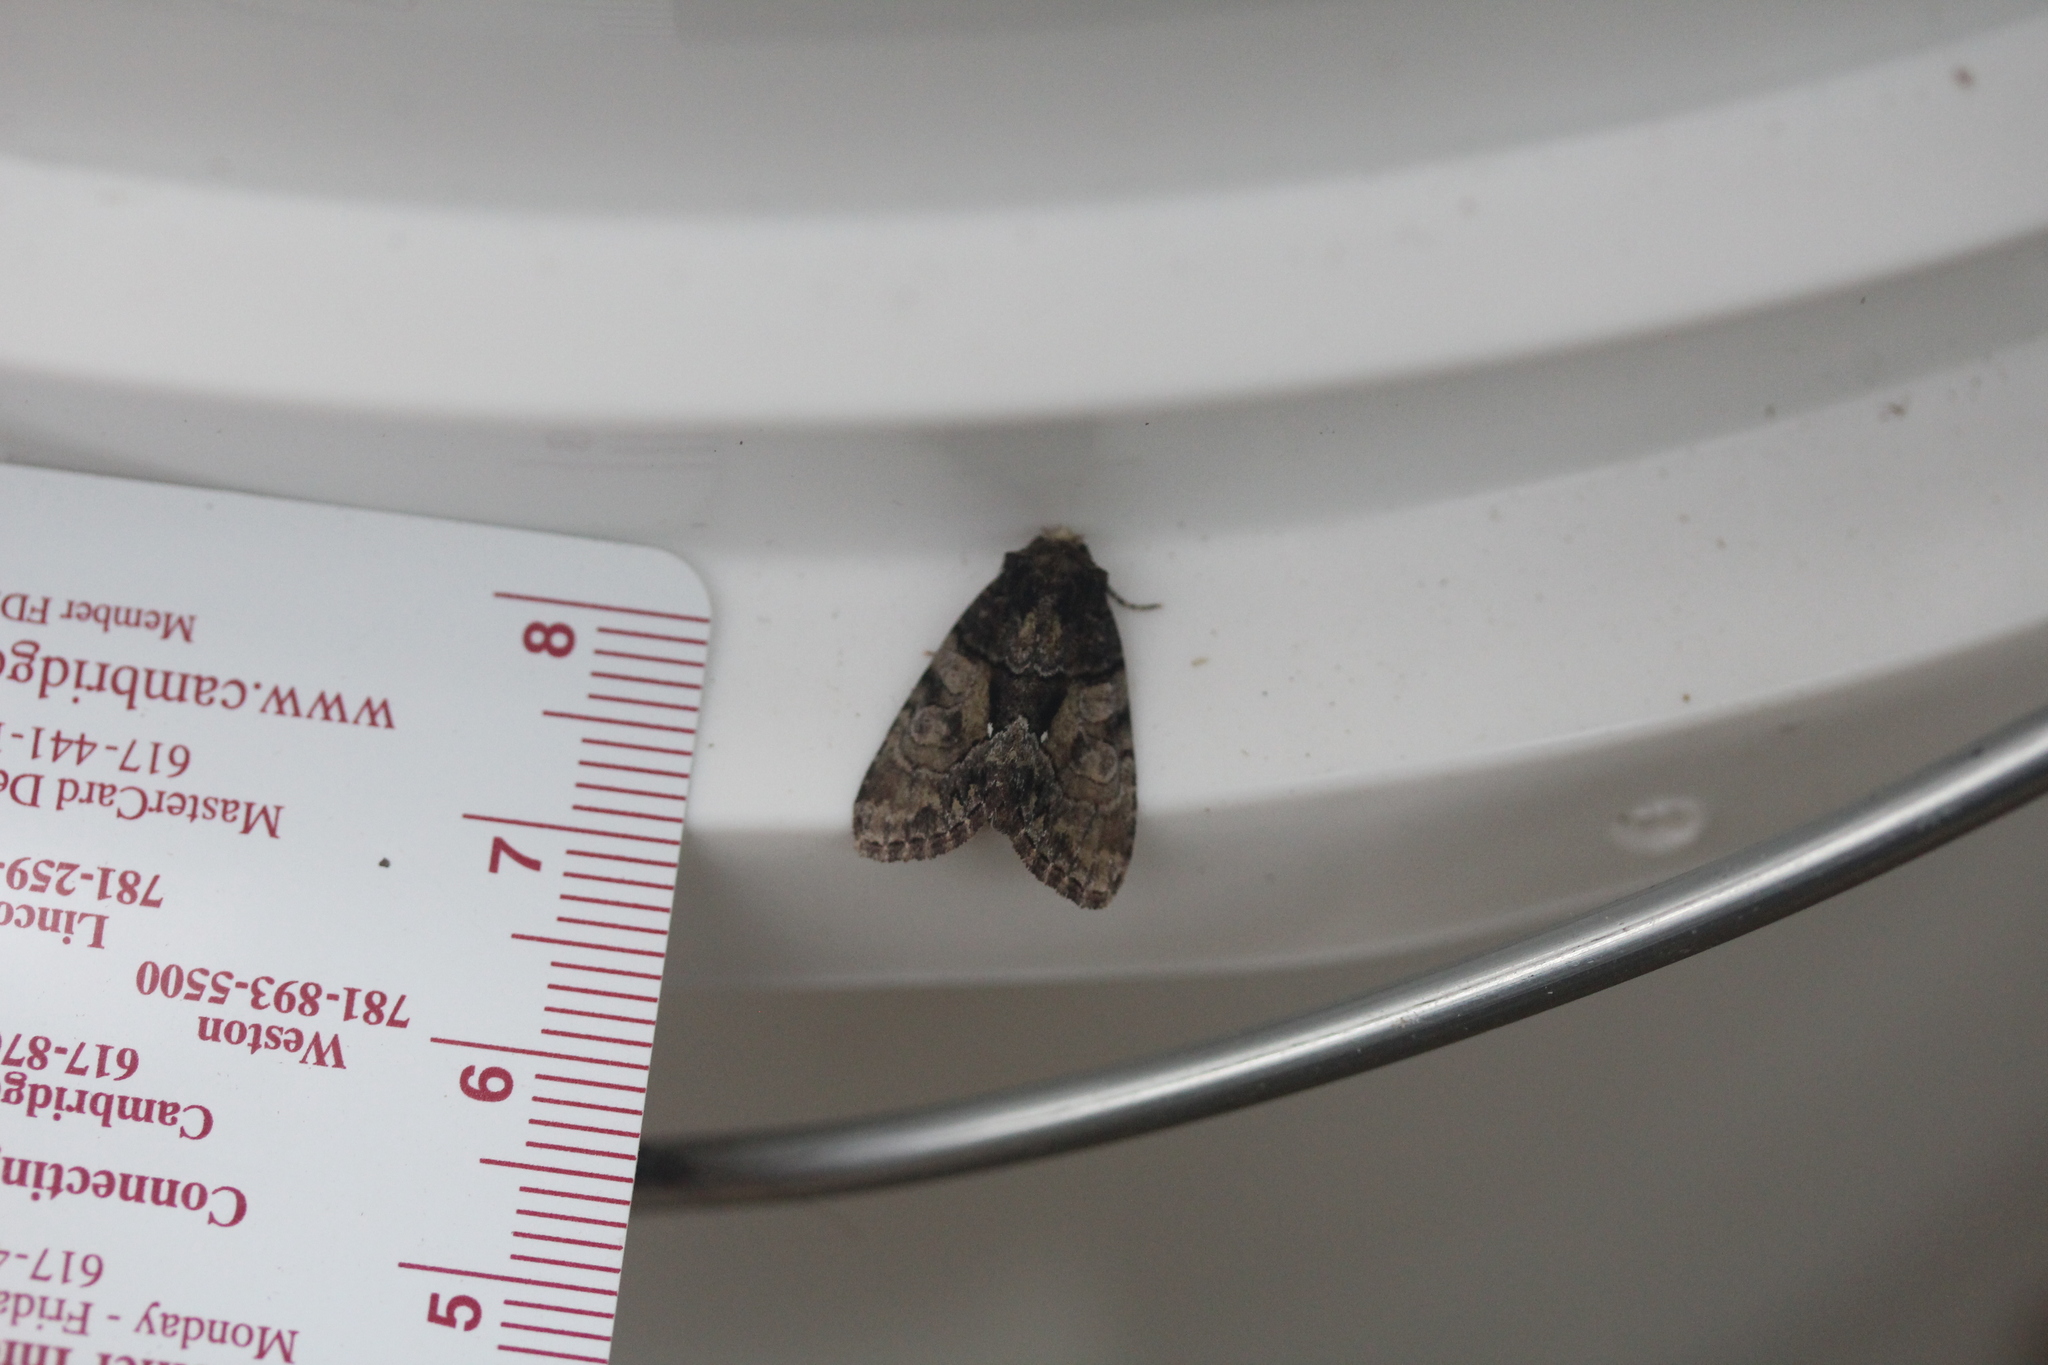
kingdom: Animalia
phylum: Arthropoda
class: Insecta
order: Lepidoptera
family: Noctuidae
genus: Chytonix
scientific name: Chytonix palliatricula
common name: Cloaked marvel
